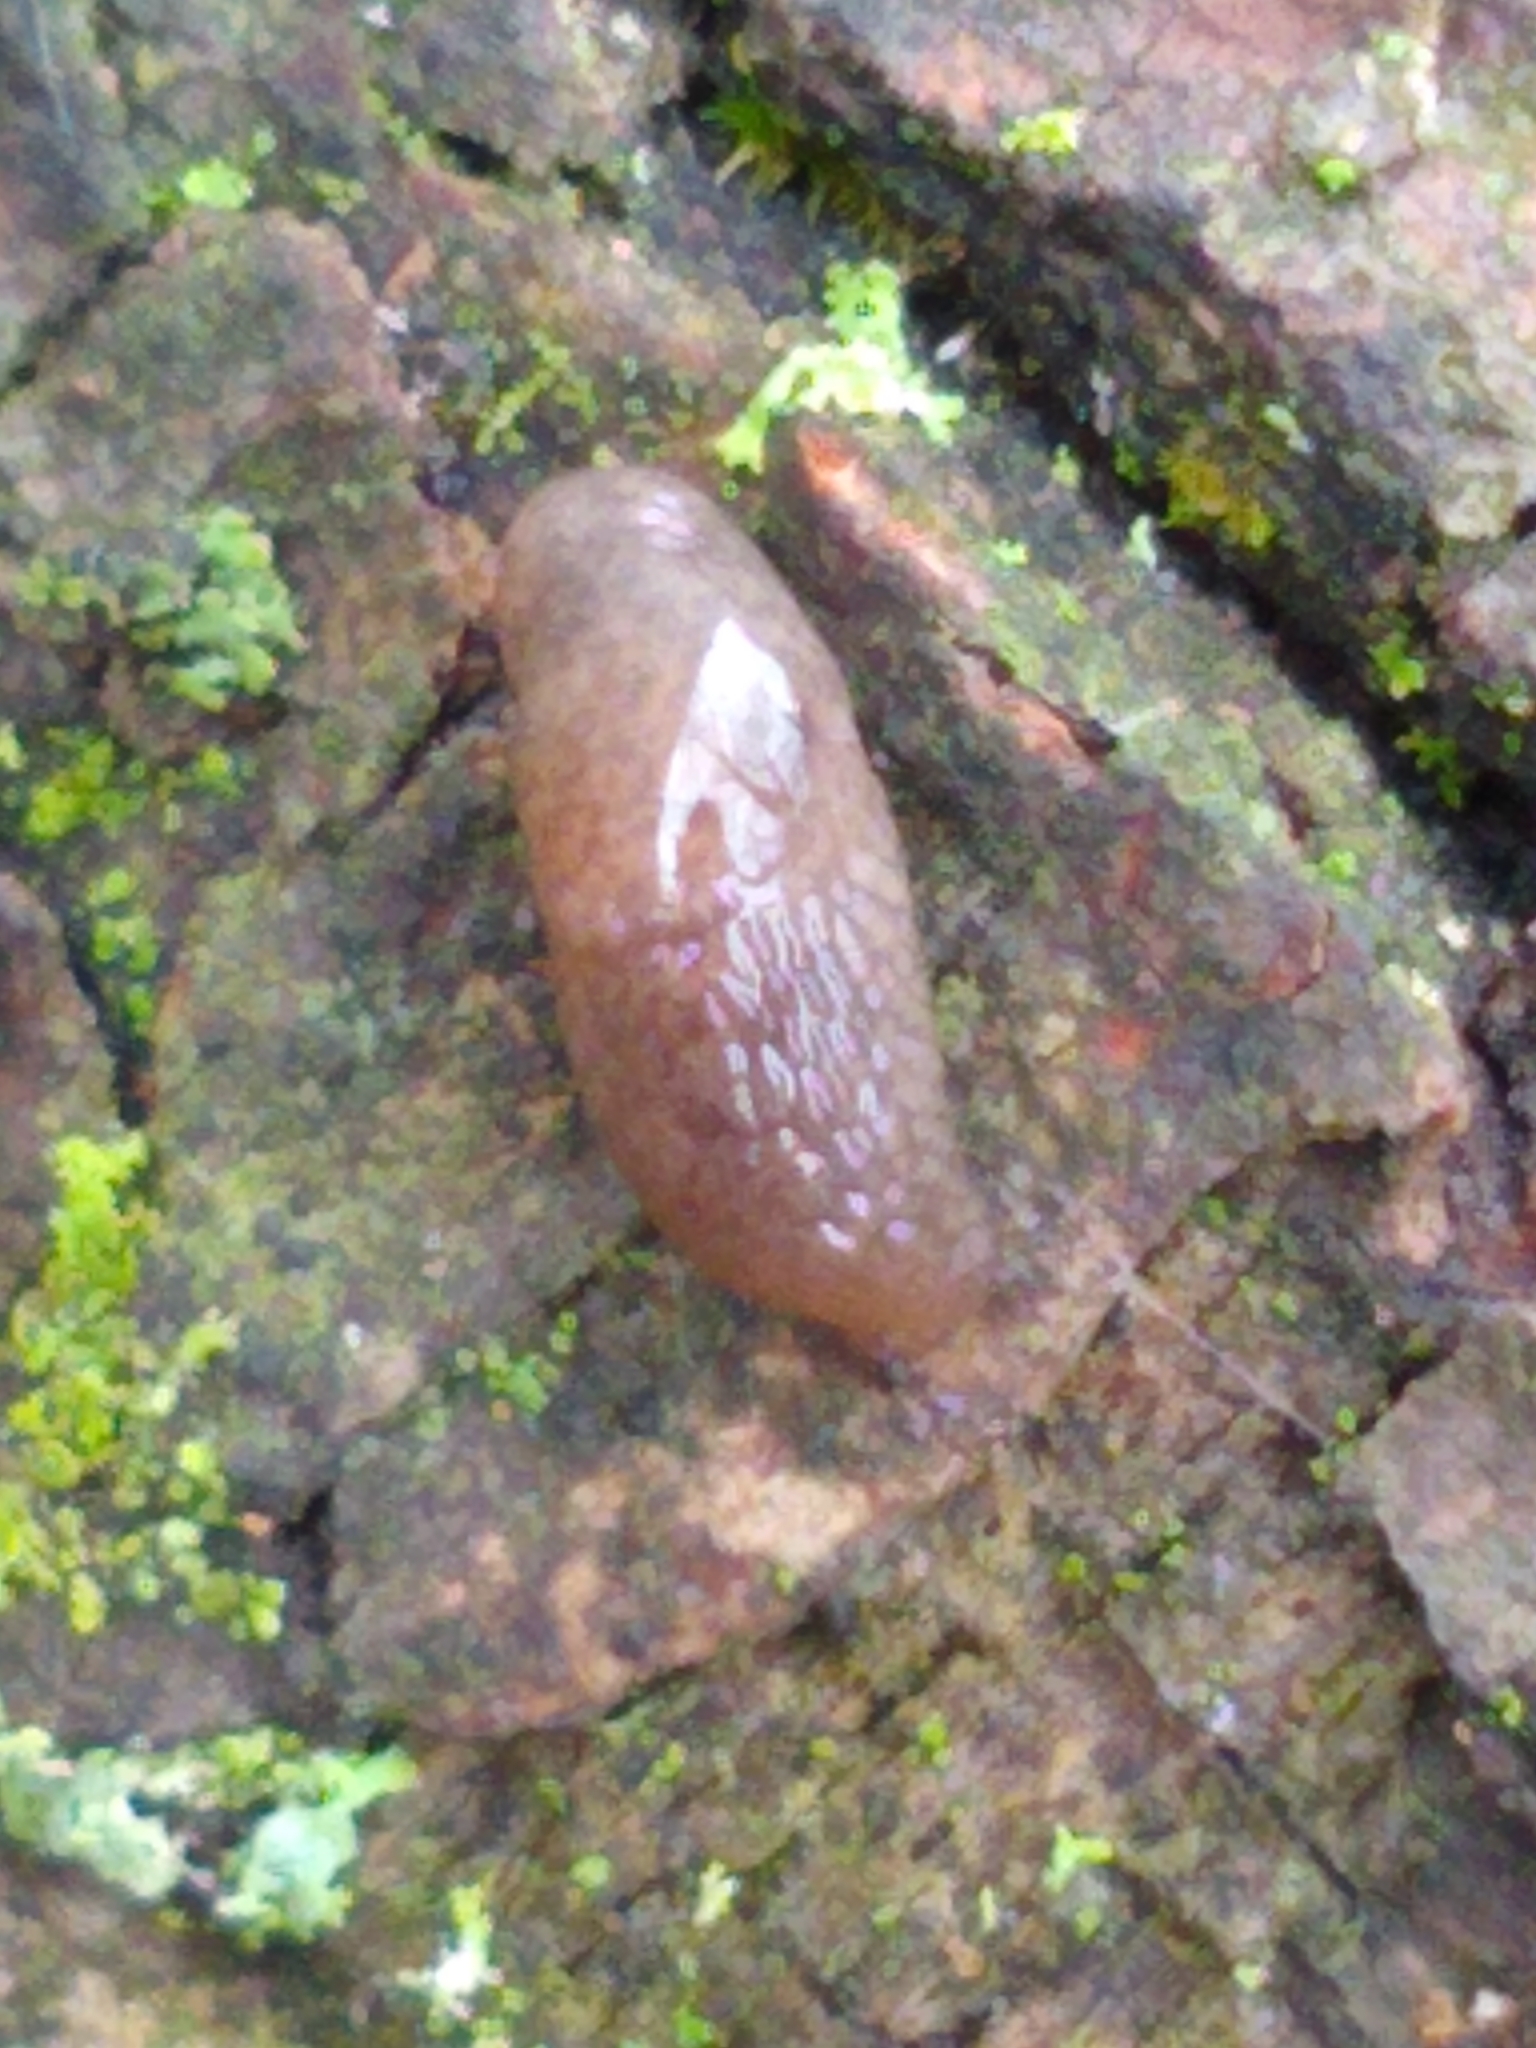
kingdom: Animalia
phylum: Mollusca
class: Gastropoda
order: Stylommatophora
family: Agriolimacidae
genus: Deroceras
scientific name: Deroceras reticulatum
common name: Gray field slug
